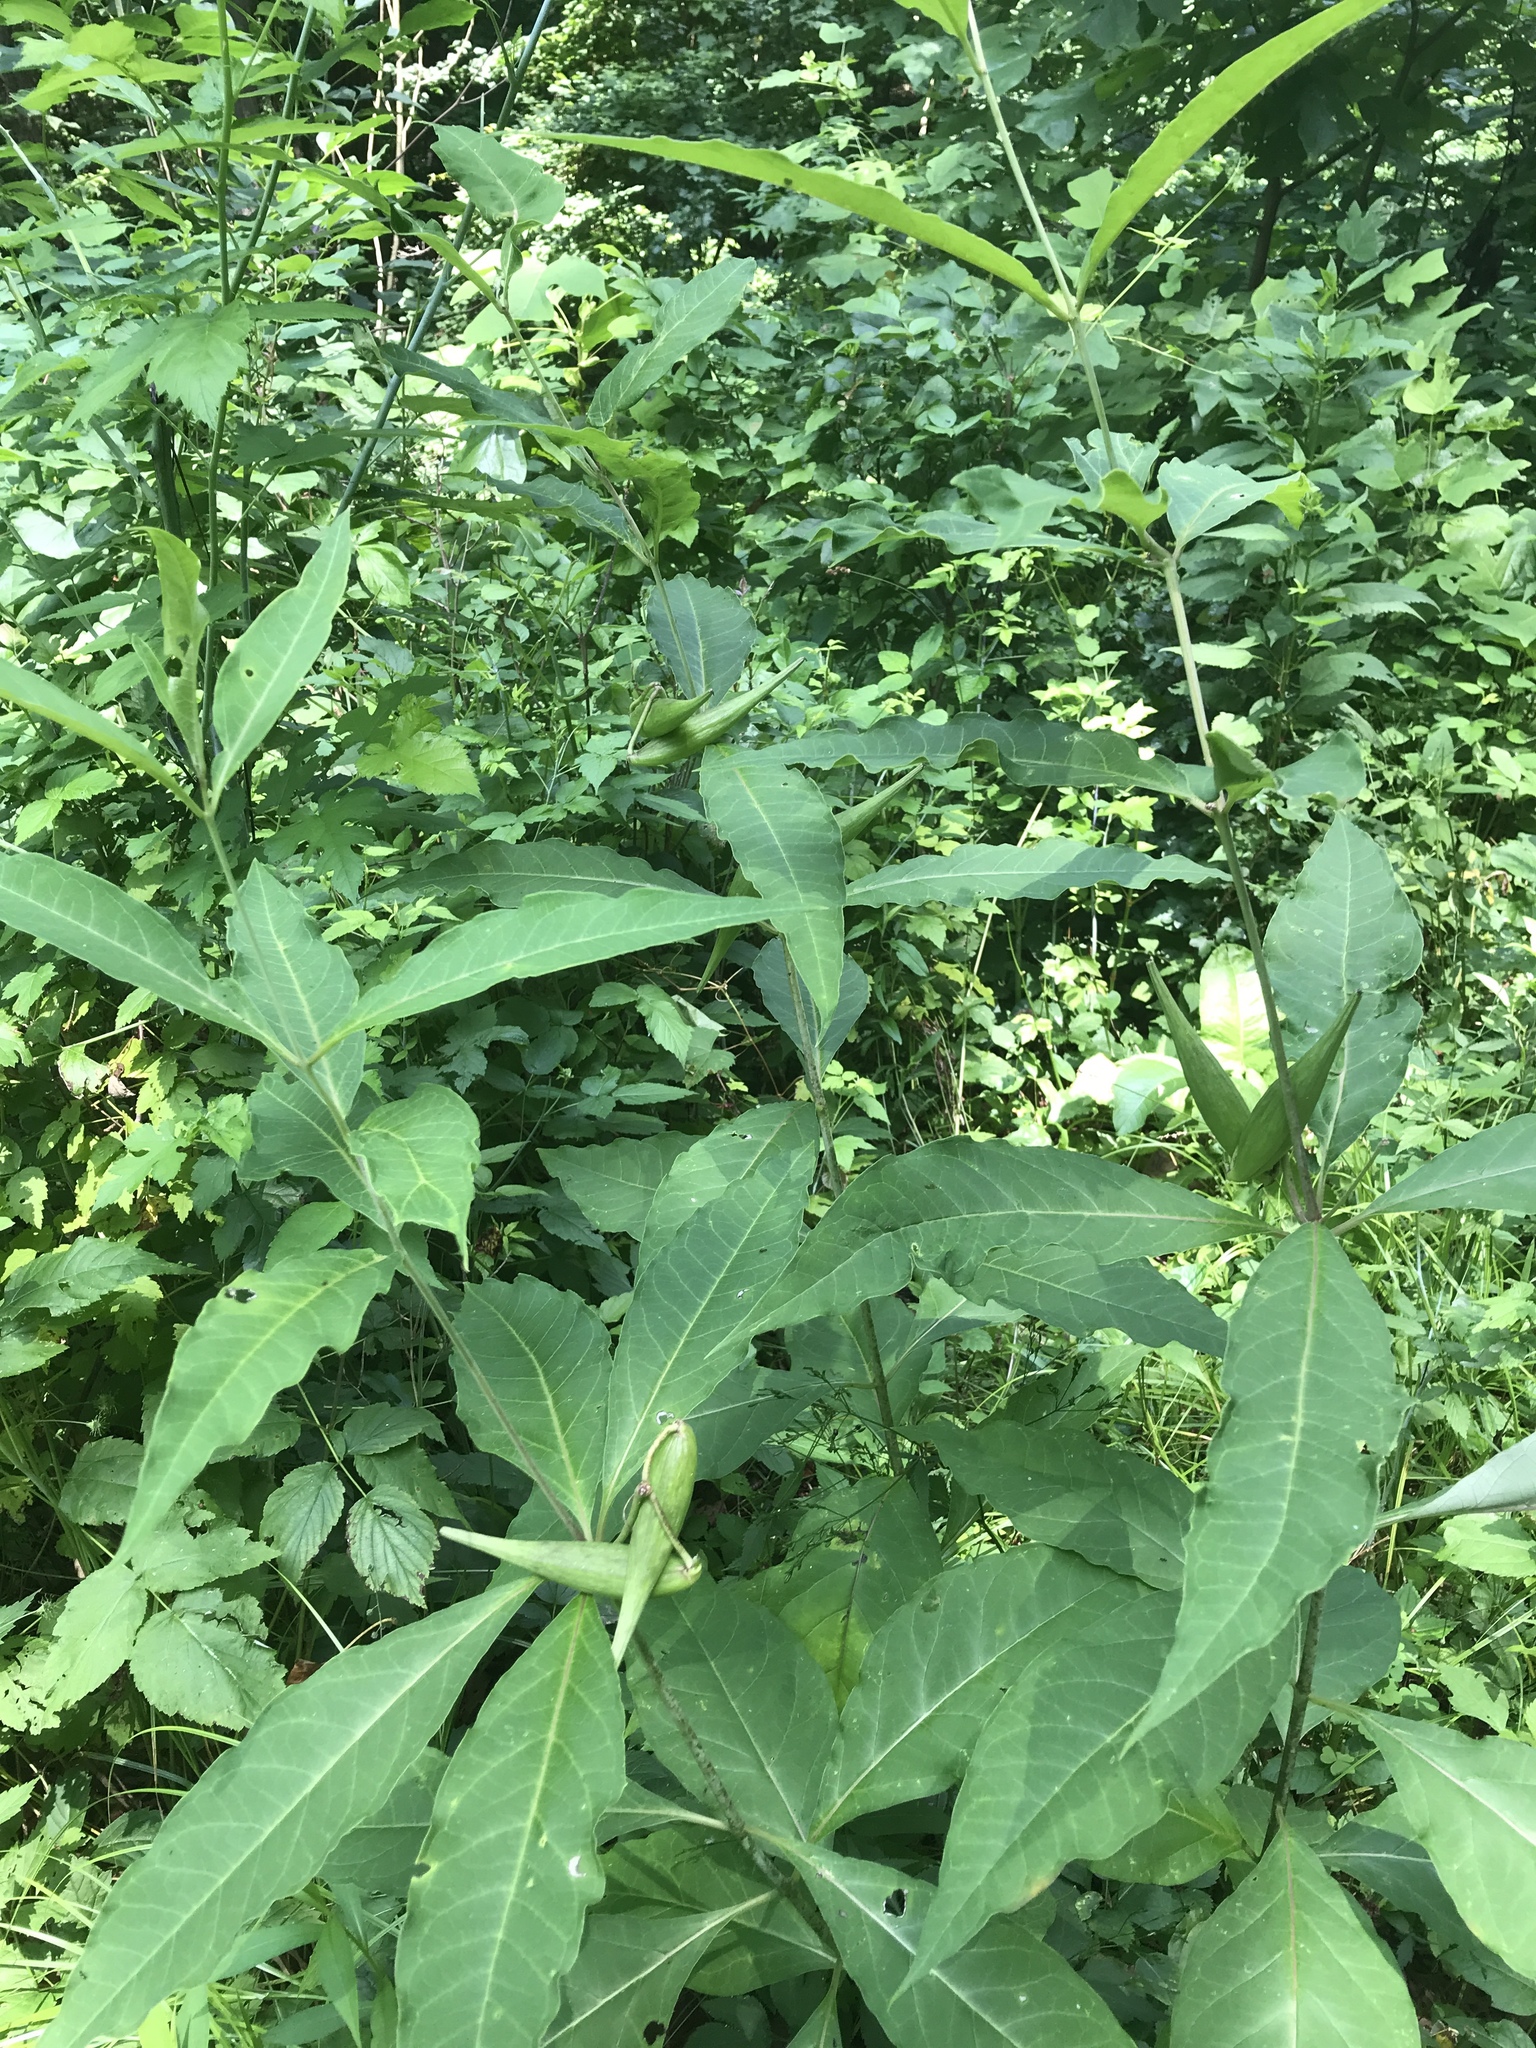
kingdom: Plantae
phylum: Tracheophyta
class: Magnoliopsida
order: Gentianales
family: Apocynaceae
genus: Asclepias
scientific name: Asclepias exaltata
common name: Poke milkweed
